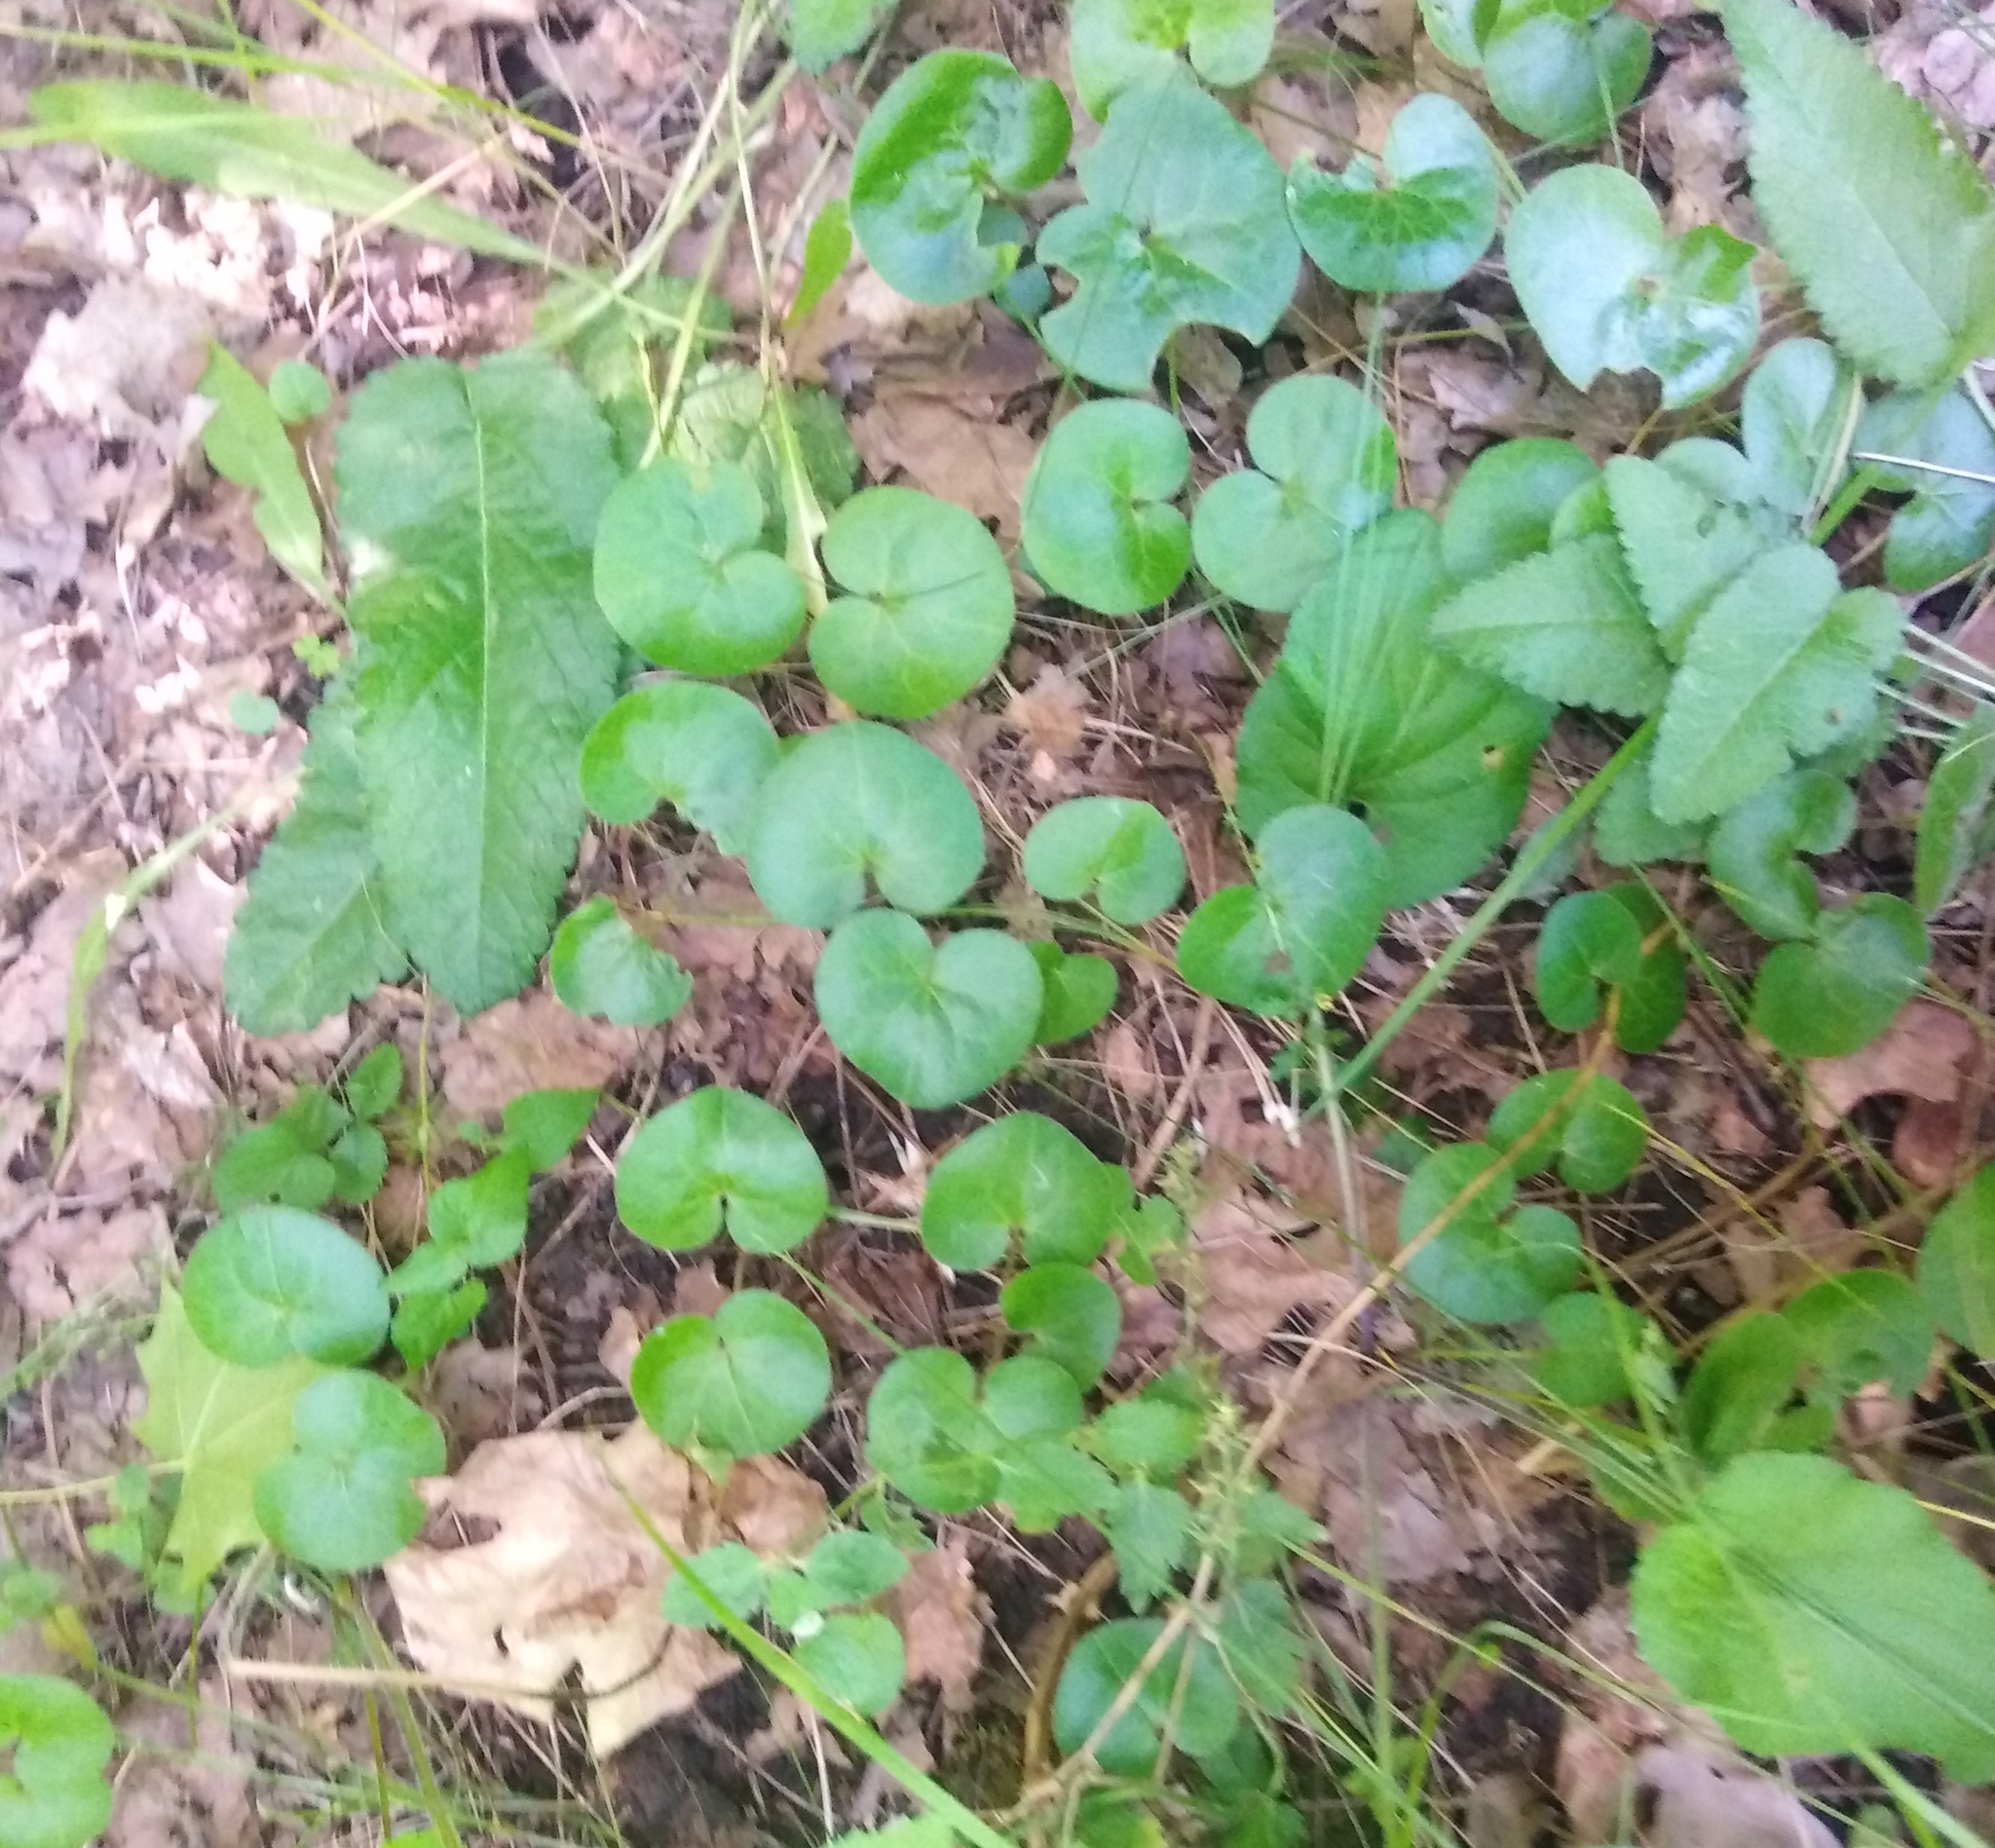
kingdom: Plantae
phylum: Tracheophyta
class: Magnoliopsida
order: Piperales
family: Aristolochiaceae
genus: Asarum
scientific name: Asarum europaeum
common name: Asarabacca
